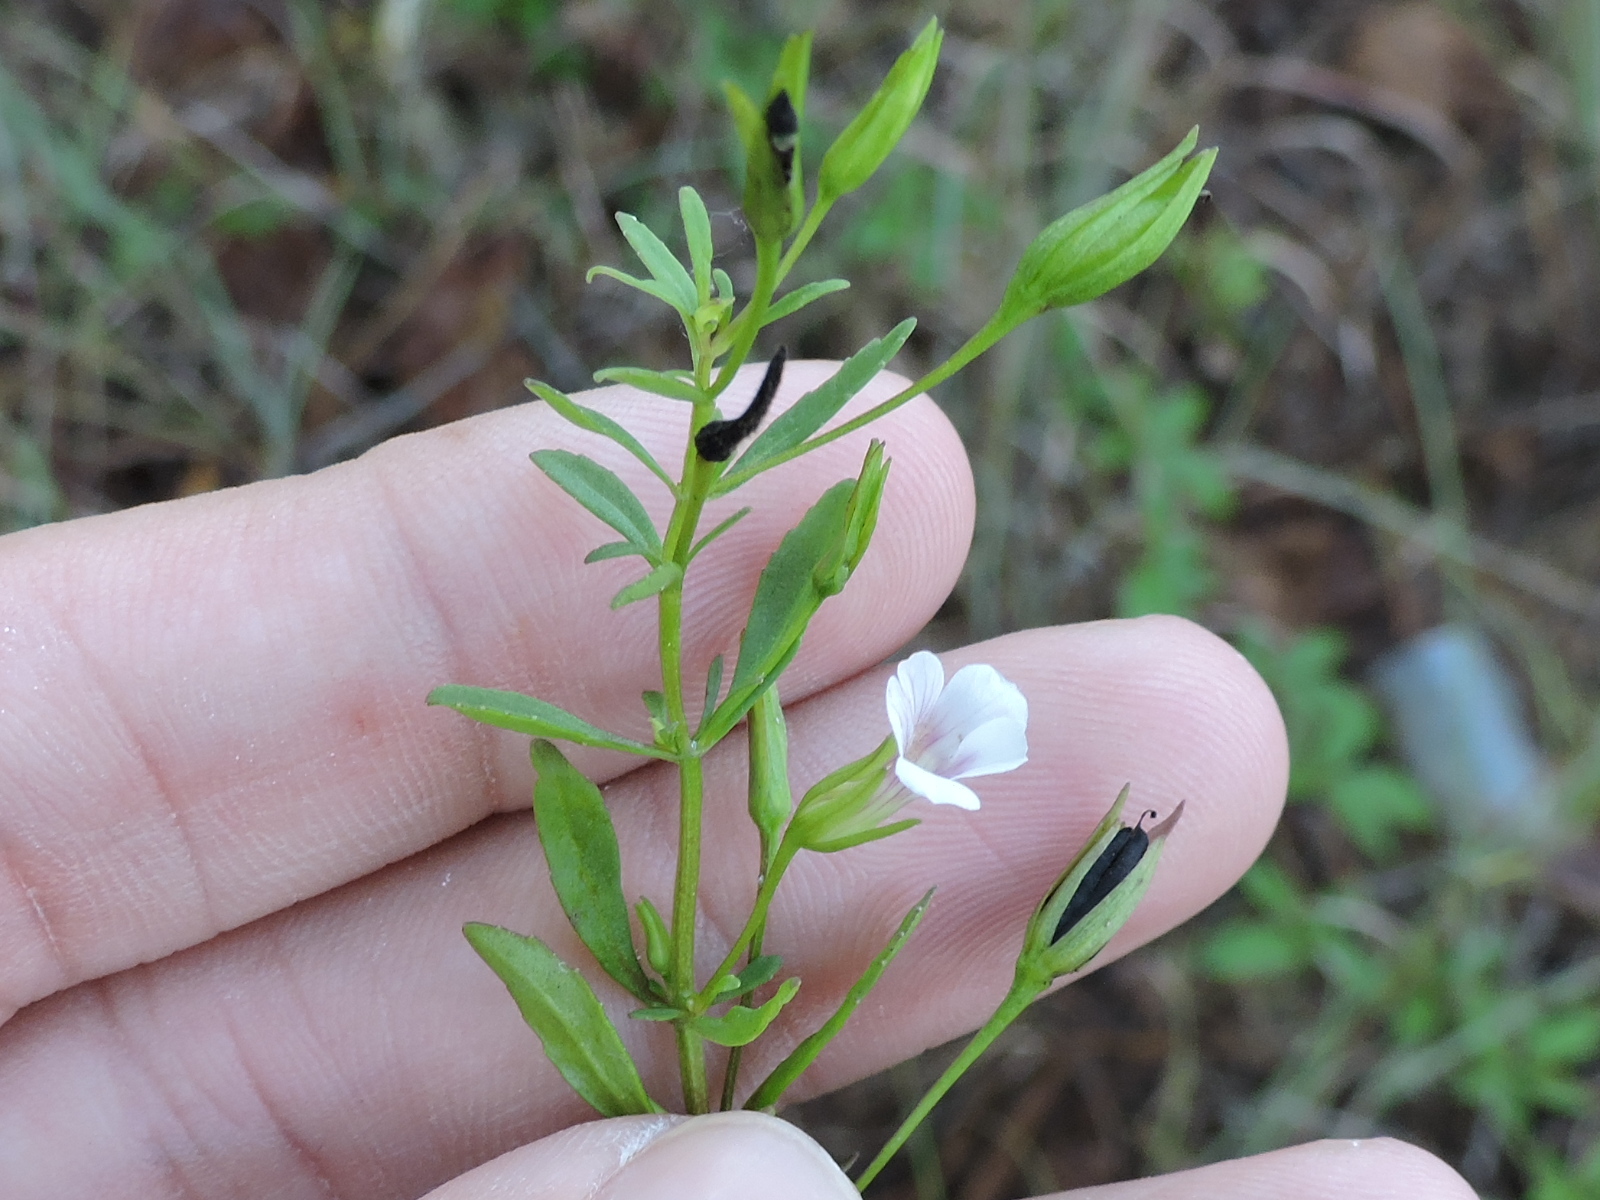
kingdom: Plantae
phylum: Tracheophyta
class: Magnoliopsida
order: Lamiales
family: Plantaginaceae
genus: Mecardonia
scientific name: Mecardonia acuminata
